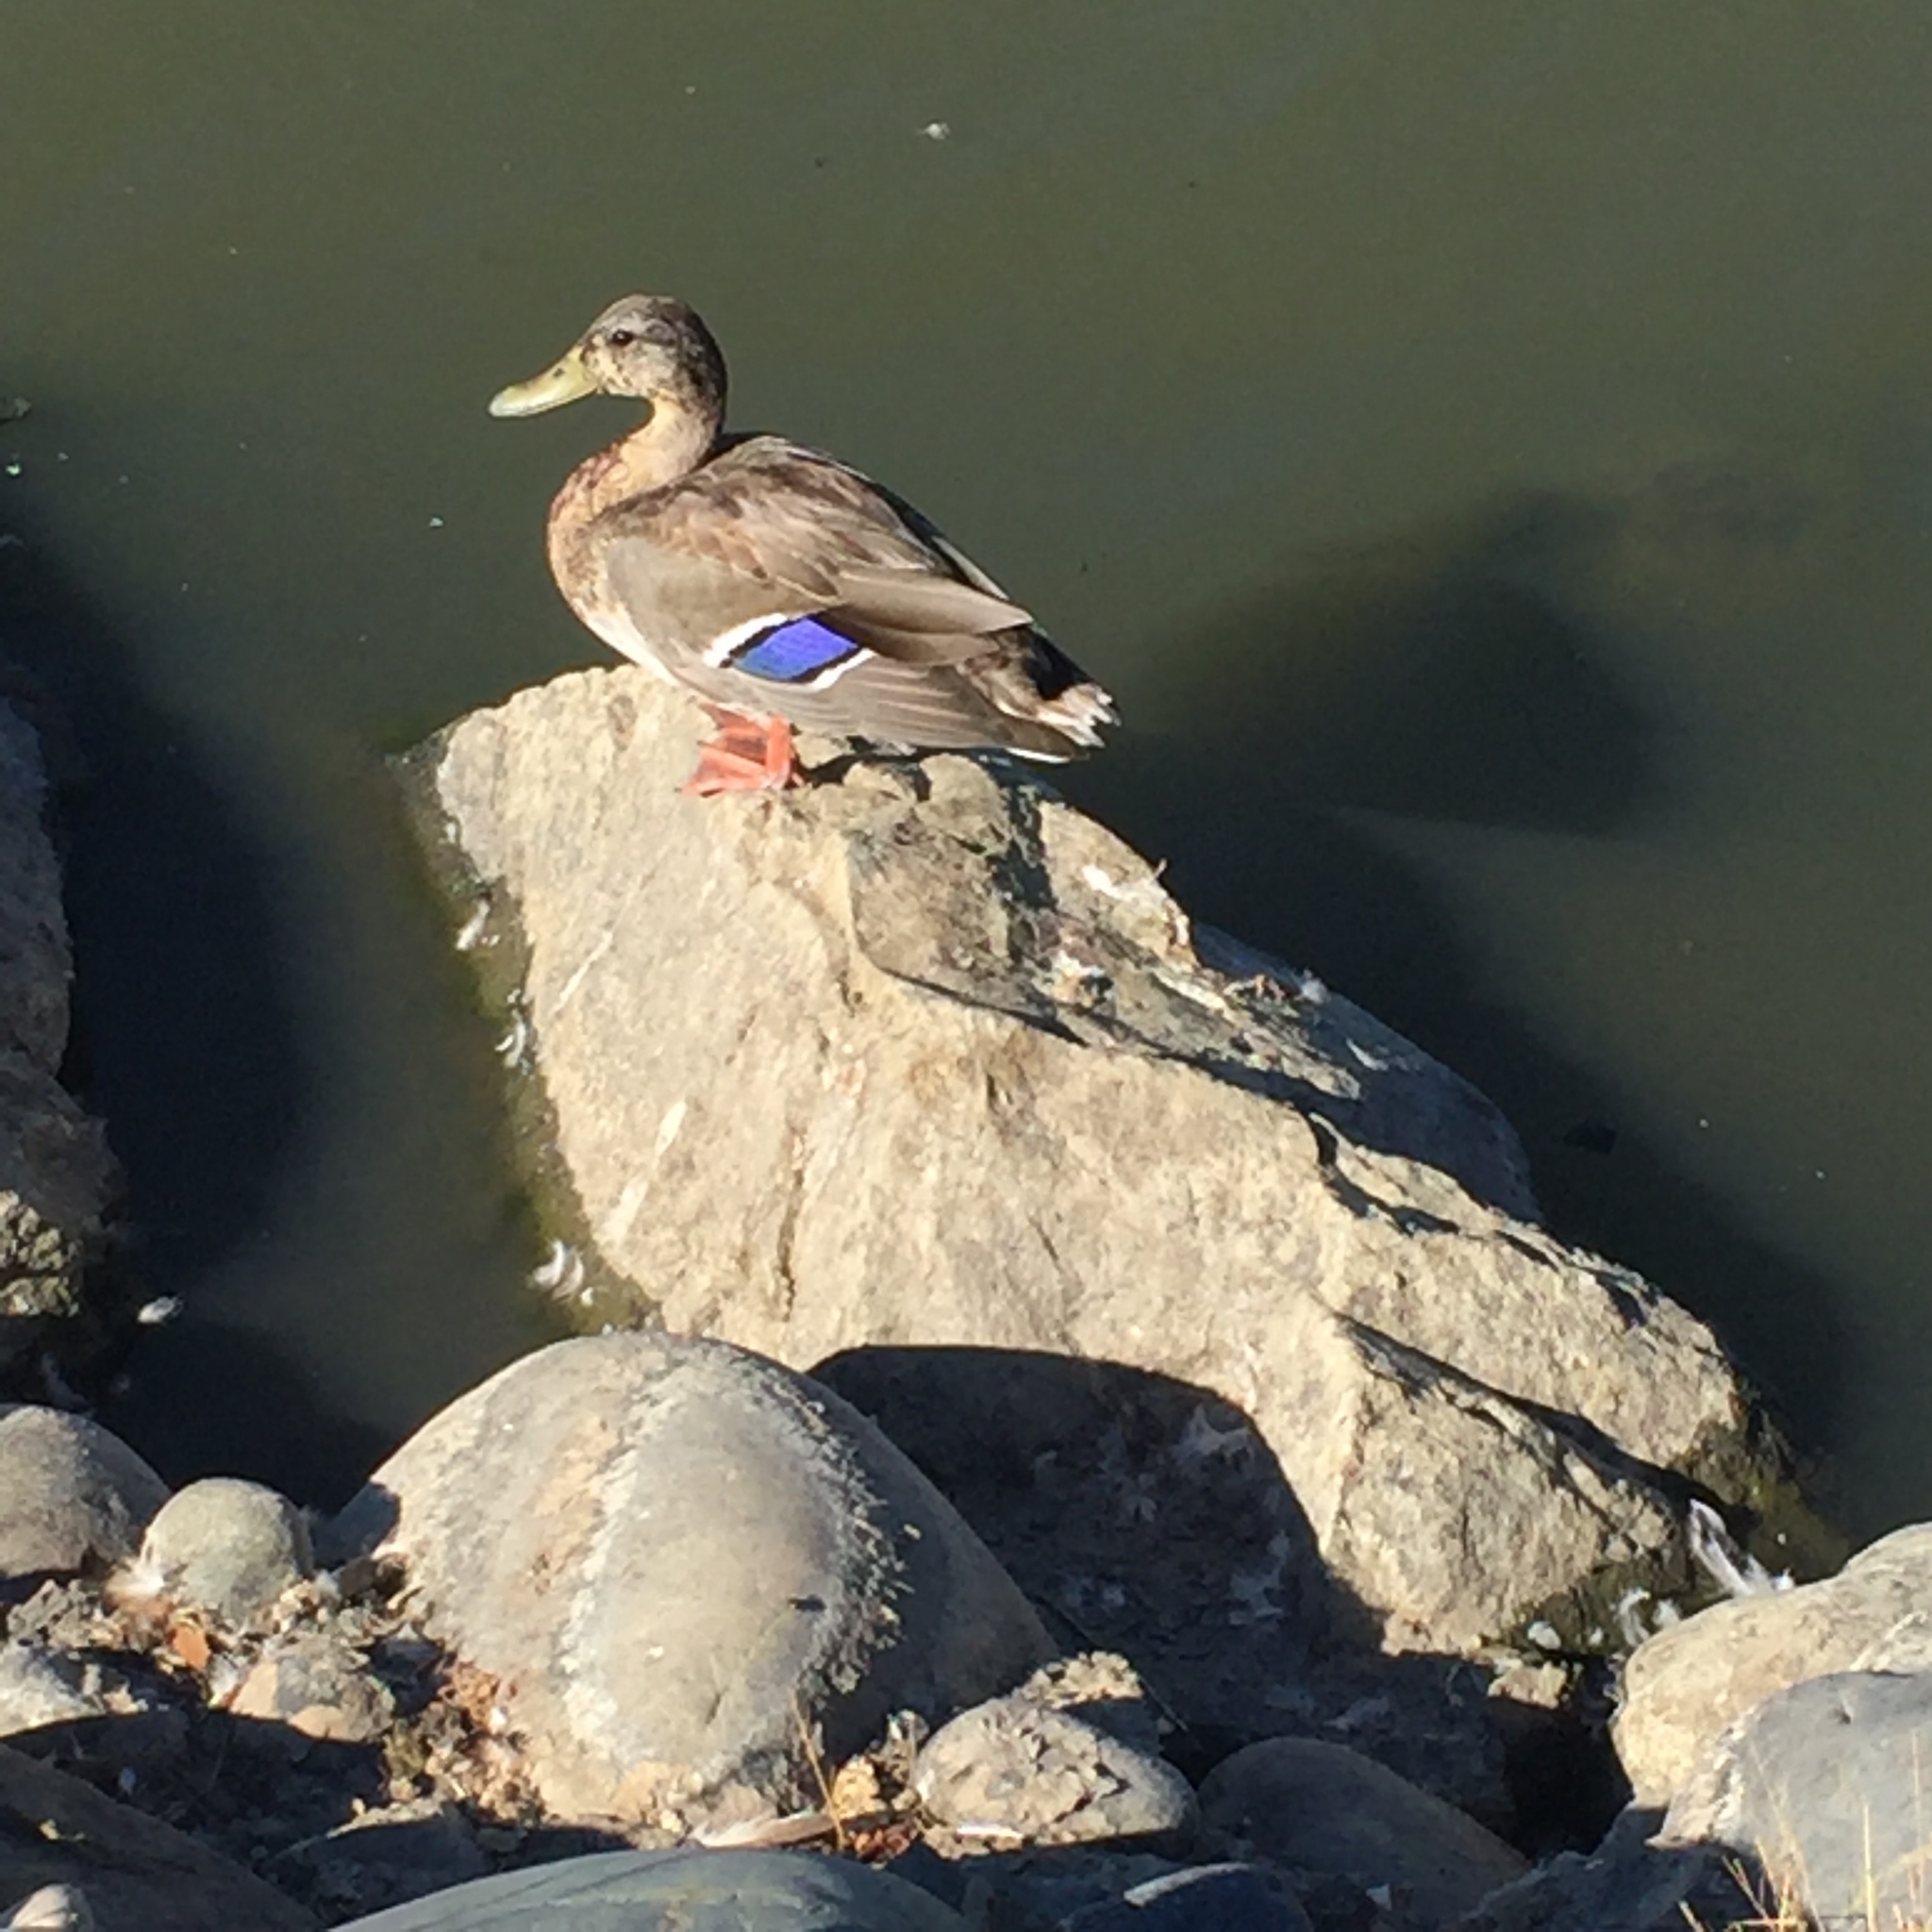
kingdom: Animalia
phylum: Chordata
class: Aves
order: Anseriformes
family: Anatidae
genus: Anas
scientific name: Anas platyrhynchos
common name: Mallard
